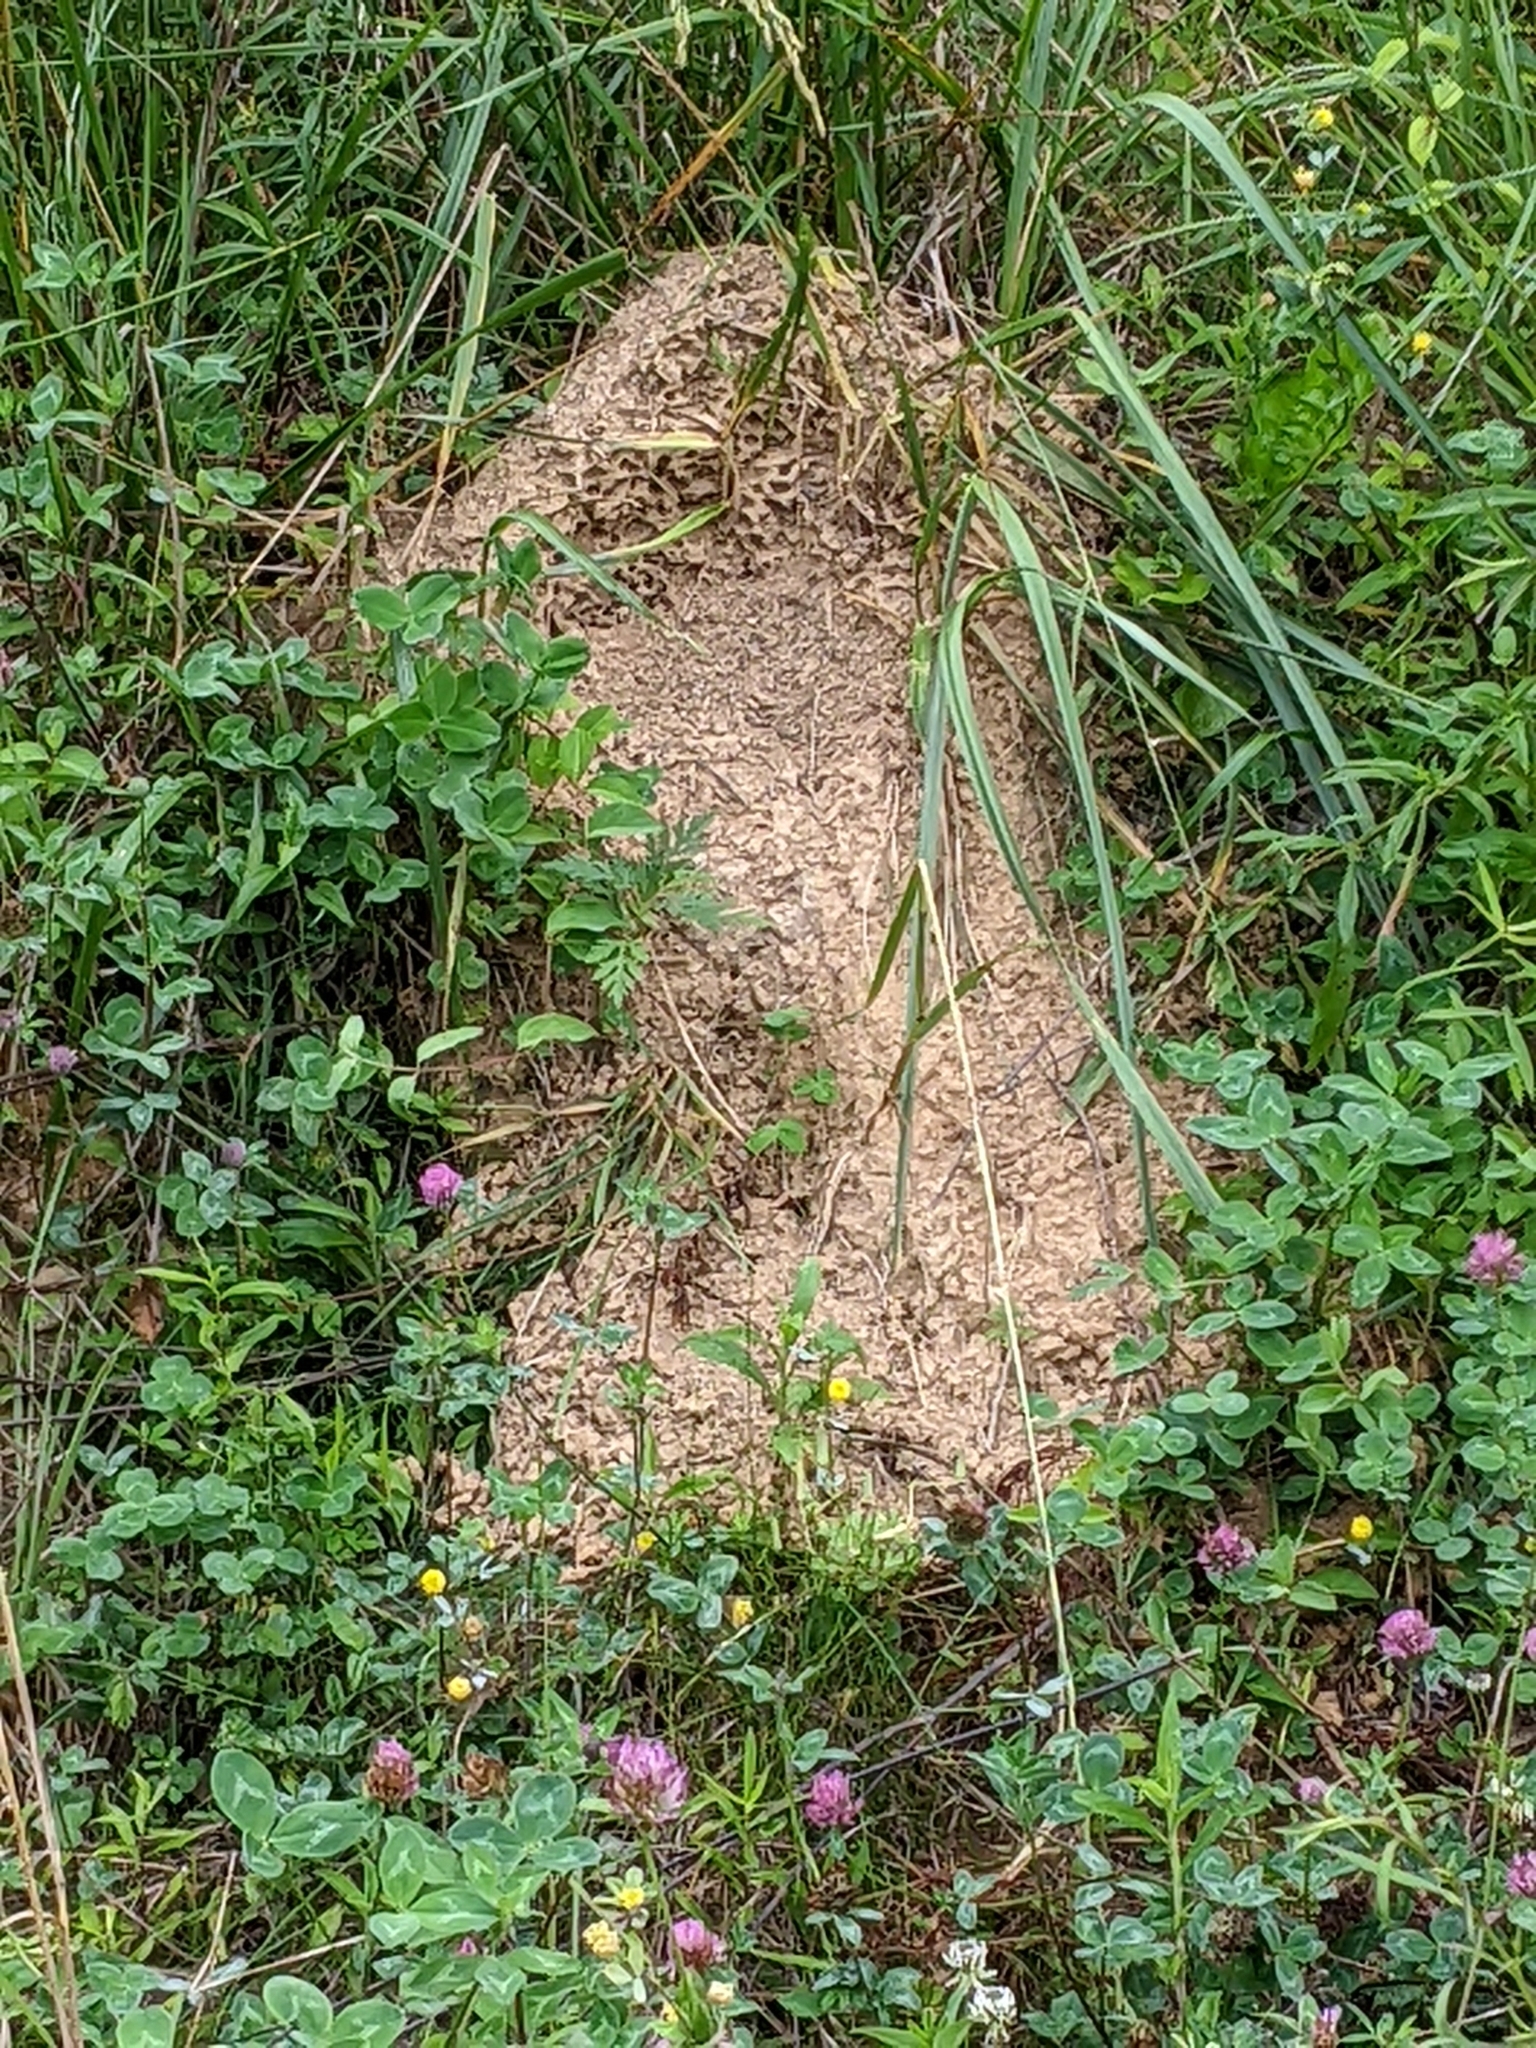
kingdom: Animalia
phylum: Arthropoda
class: Insecta
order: Hymenoptera
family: Formicidae
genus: Solenopsis
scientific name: Solenopsis invicta
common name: Red imported fire ant
